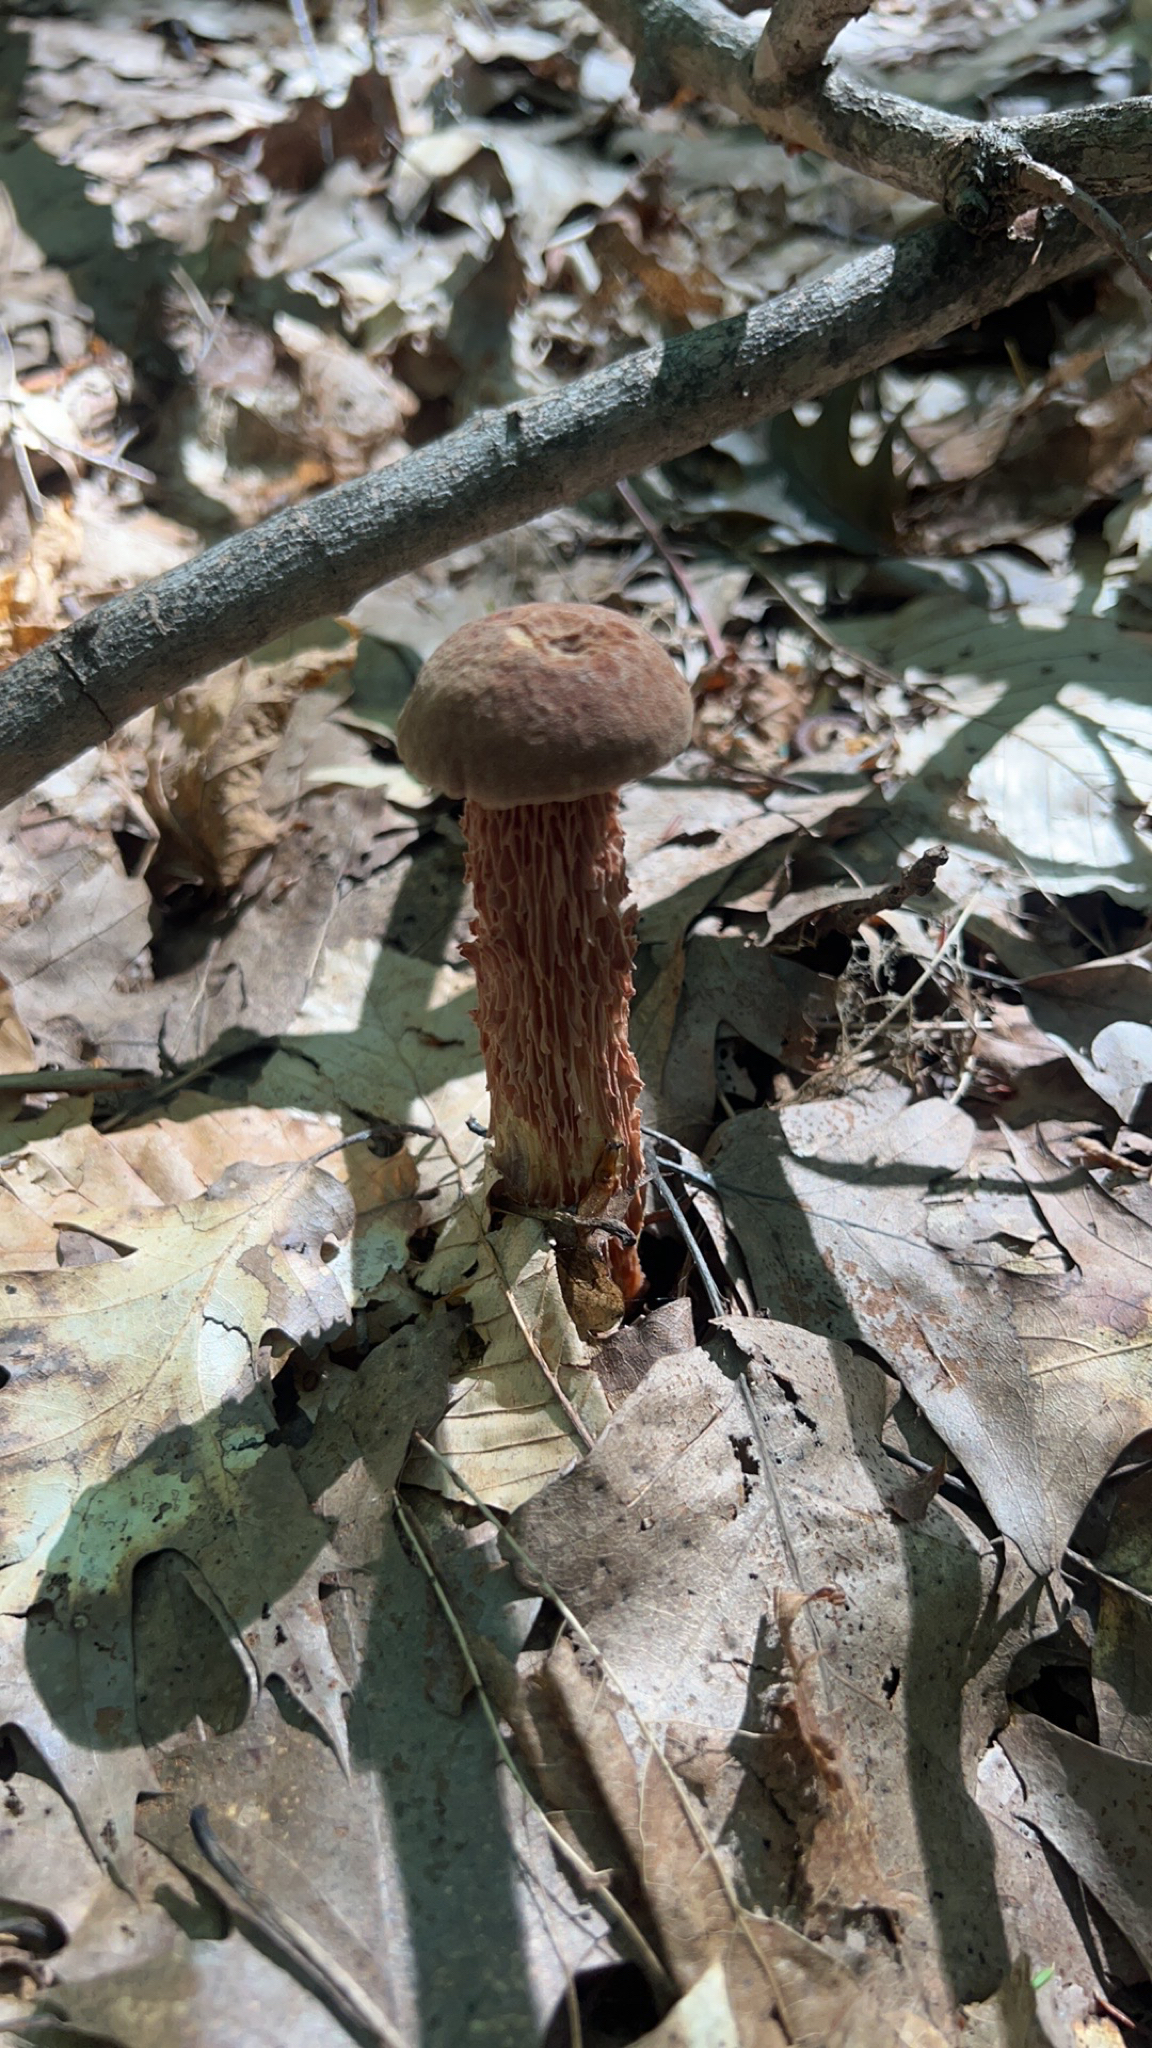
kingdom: Fungi
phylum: Basidiomycota
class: Agaricomycetes
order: Boletales
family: Boletaceae
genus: Aureoboletus
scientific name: Aureoboletus russellii
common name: Russell's bolete
